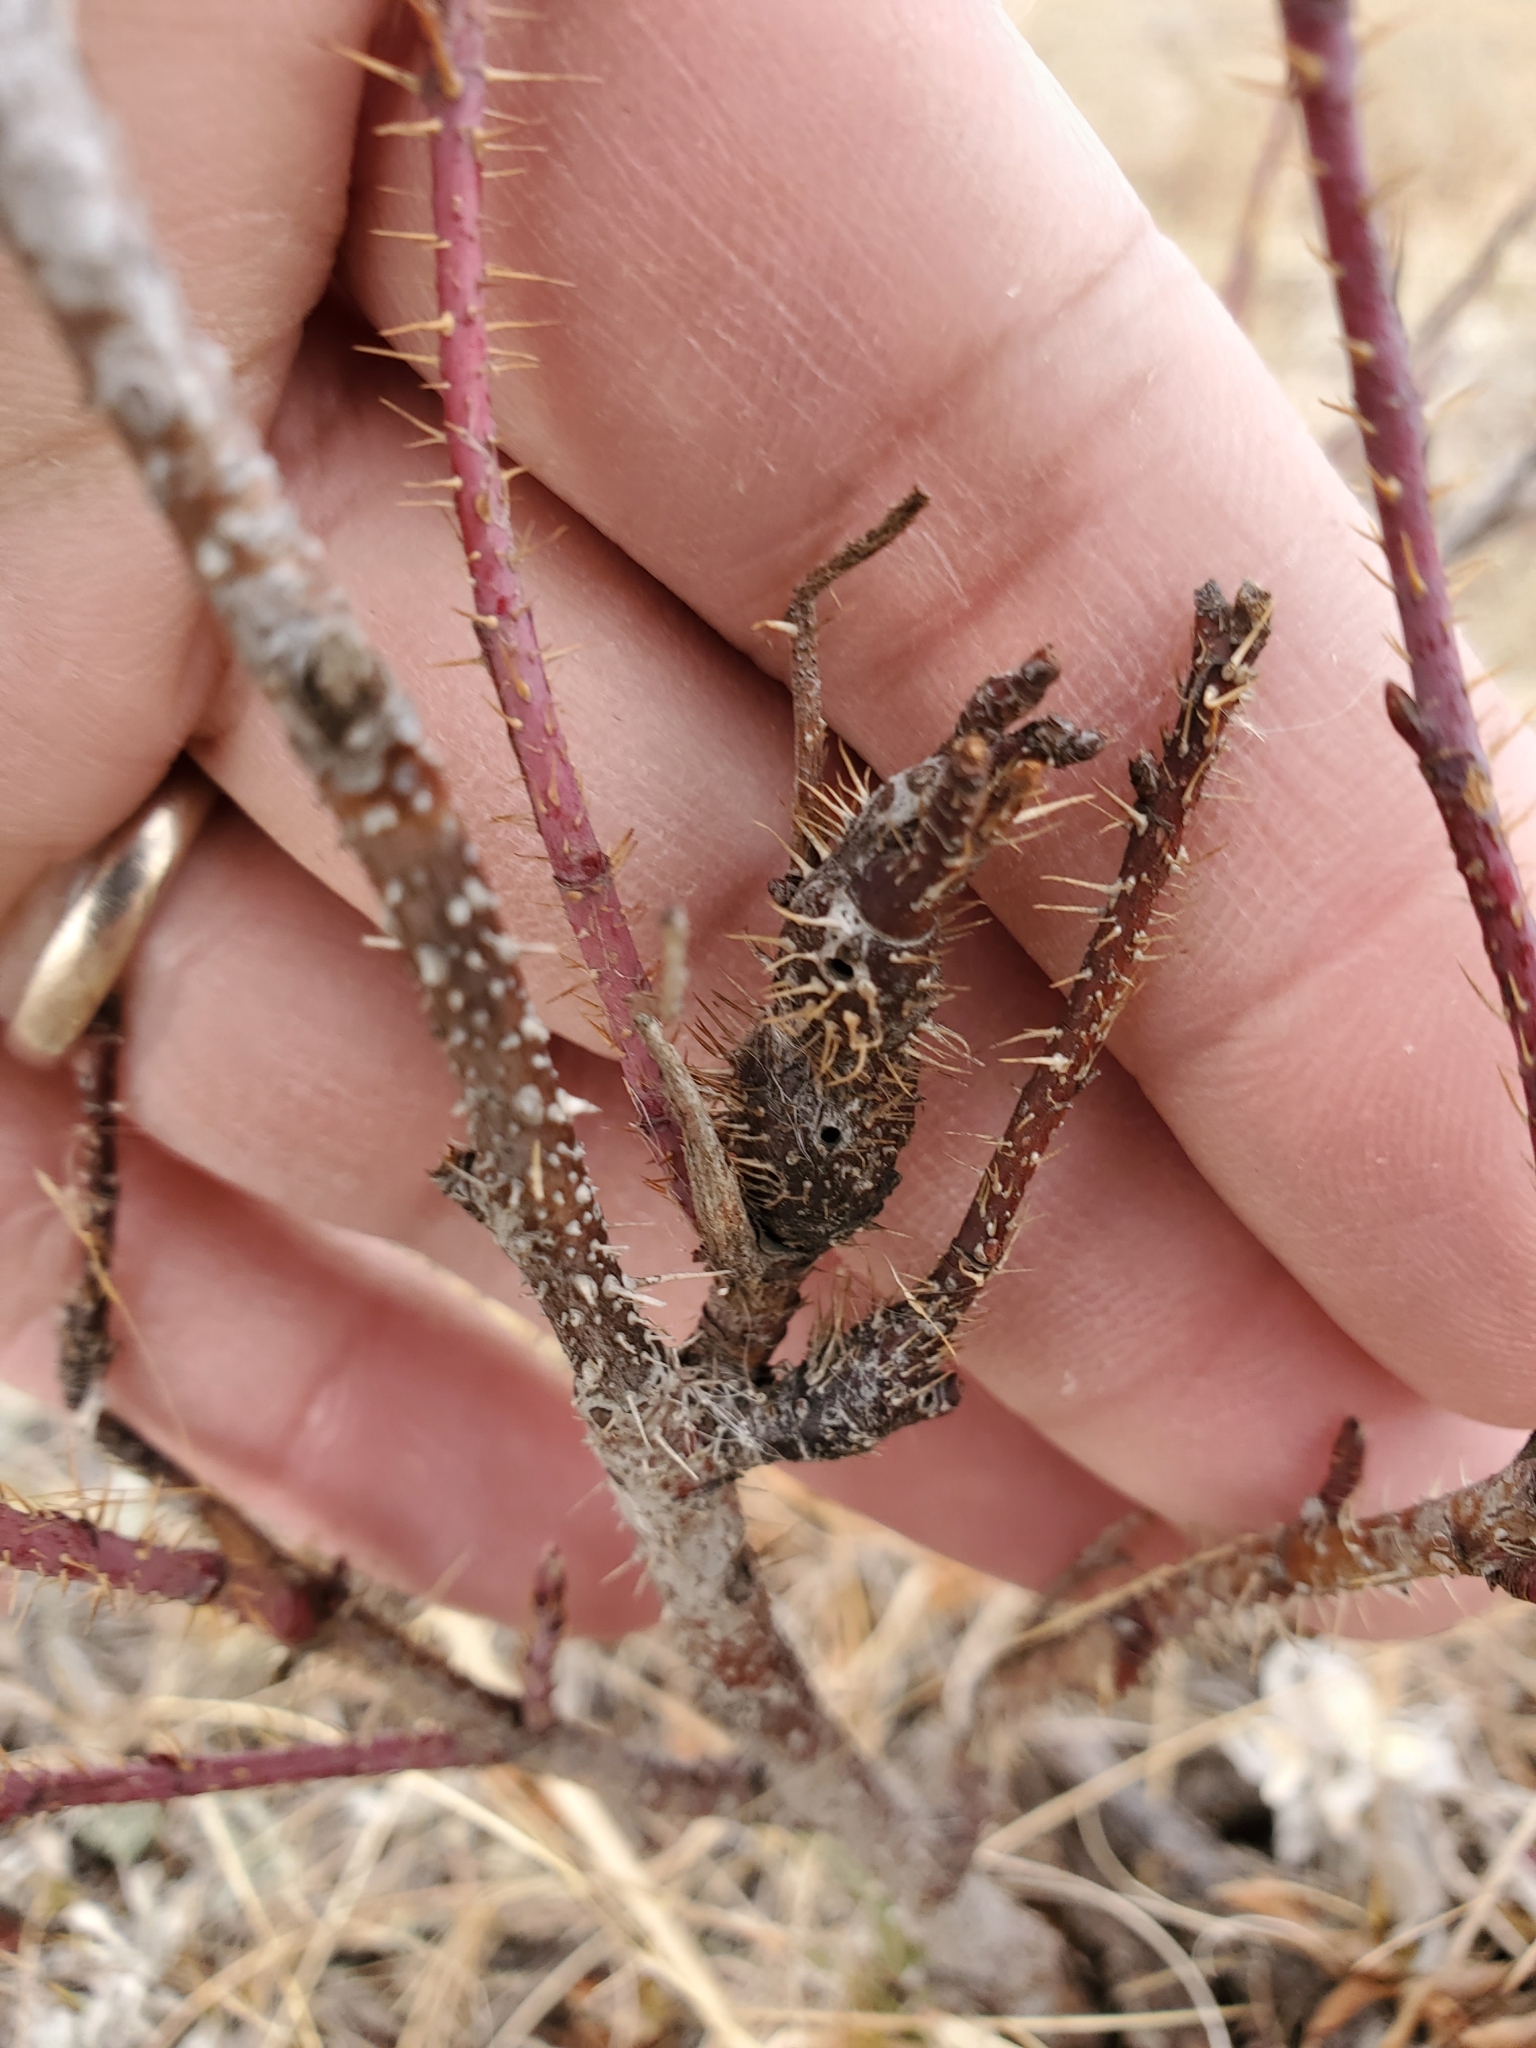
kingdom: Animalia
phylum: Arthropoda
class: Insecta
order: Hymenoptera
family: Cynipidae
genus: Diplolepis
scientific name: Diplolepis triforma
